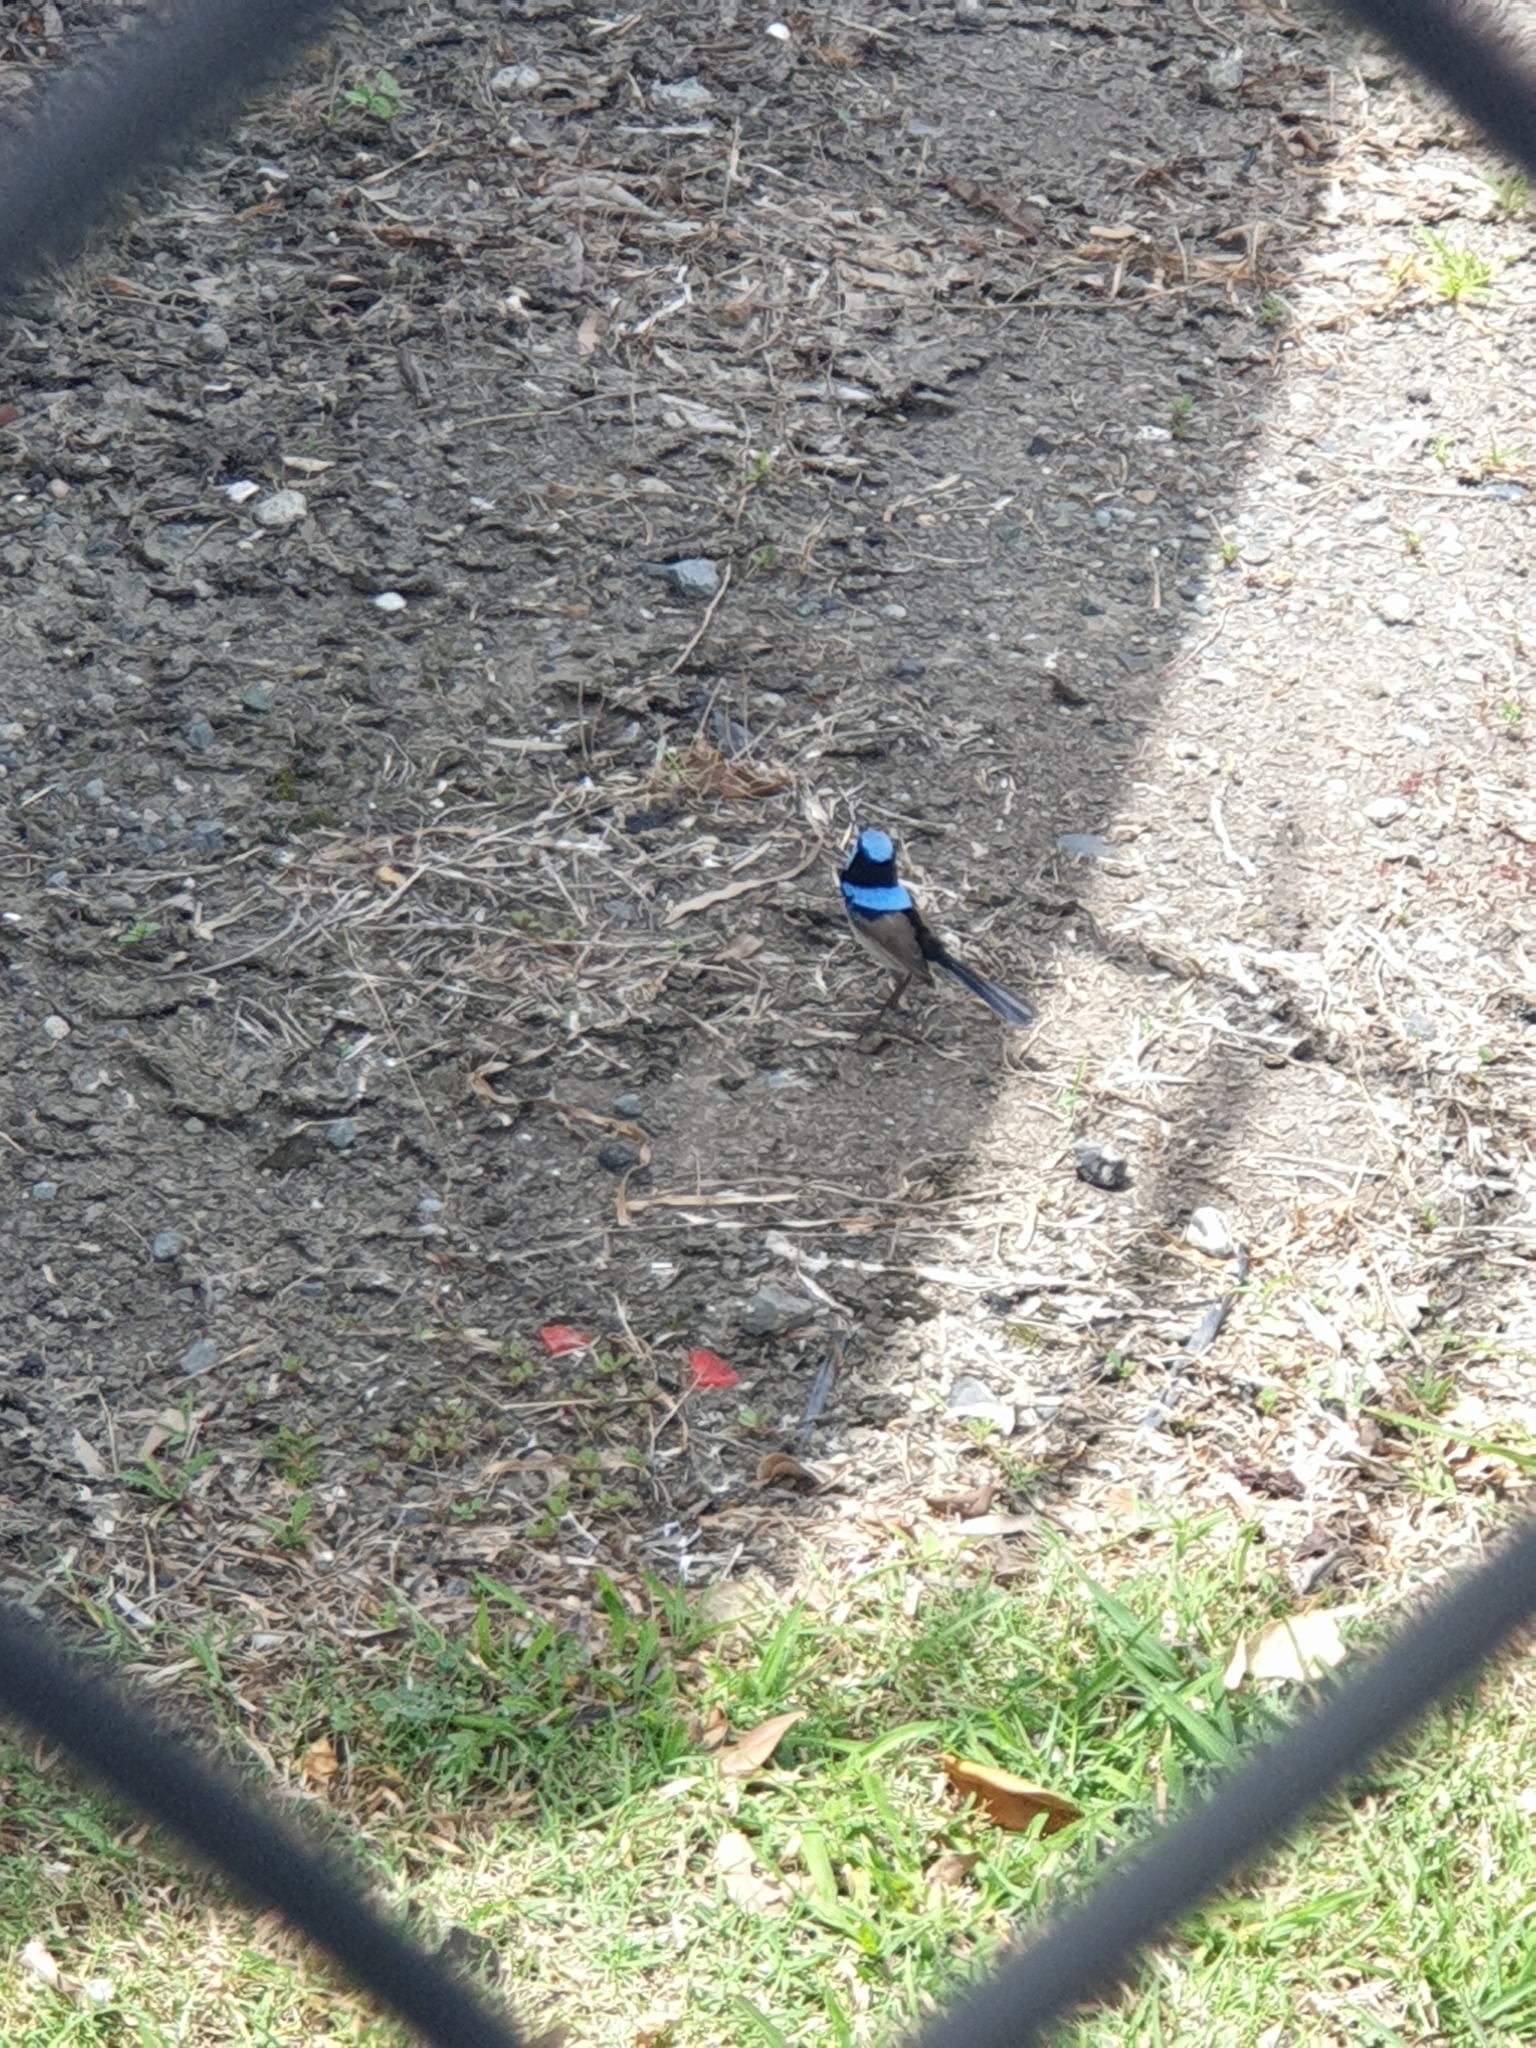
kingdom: Animalia
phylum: Chordata
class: Aves
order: Passeriformes
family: Maluridae
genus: Malurus
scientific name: Malurus cyaneus
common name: Superb fairywren
